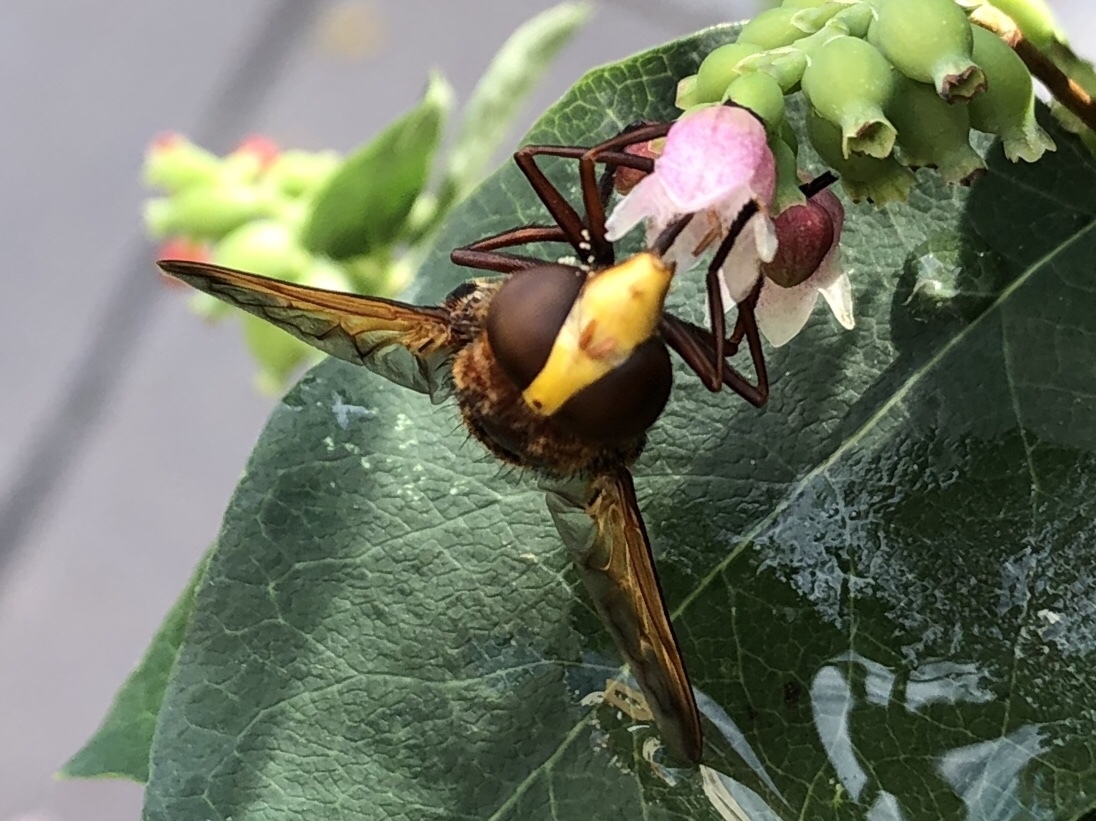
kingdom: Animalia
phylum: Arthropoda
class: Insecta
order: Diptera
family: Syrphidae
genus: Volucella
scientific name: Volucella zonaria
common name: Hornet hoverfly
